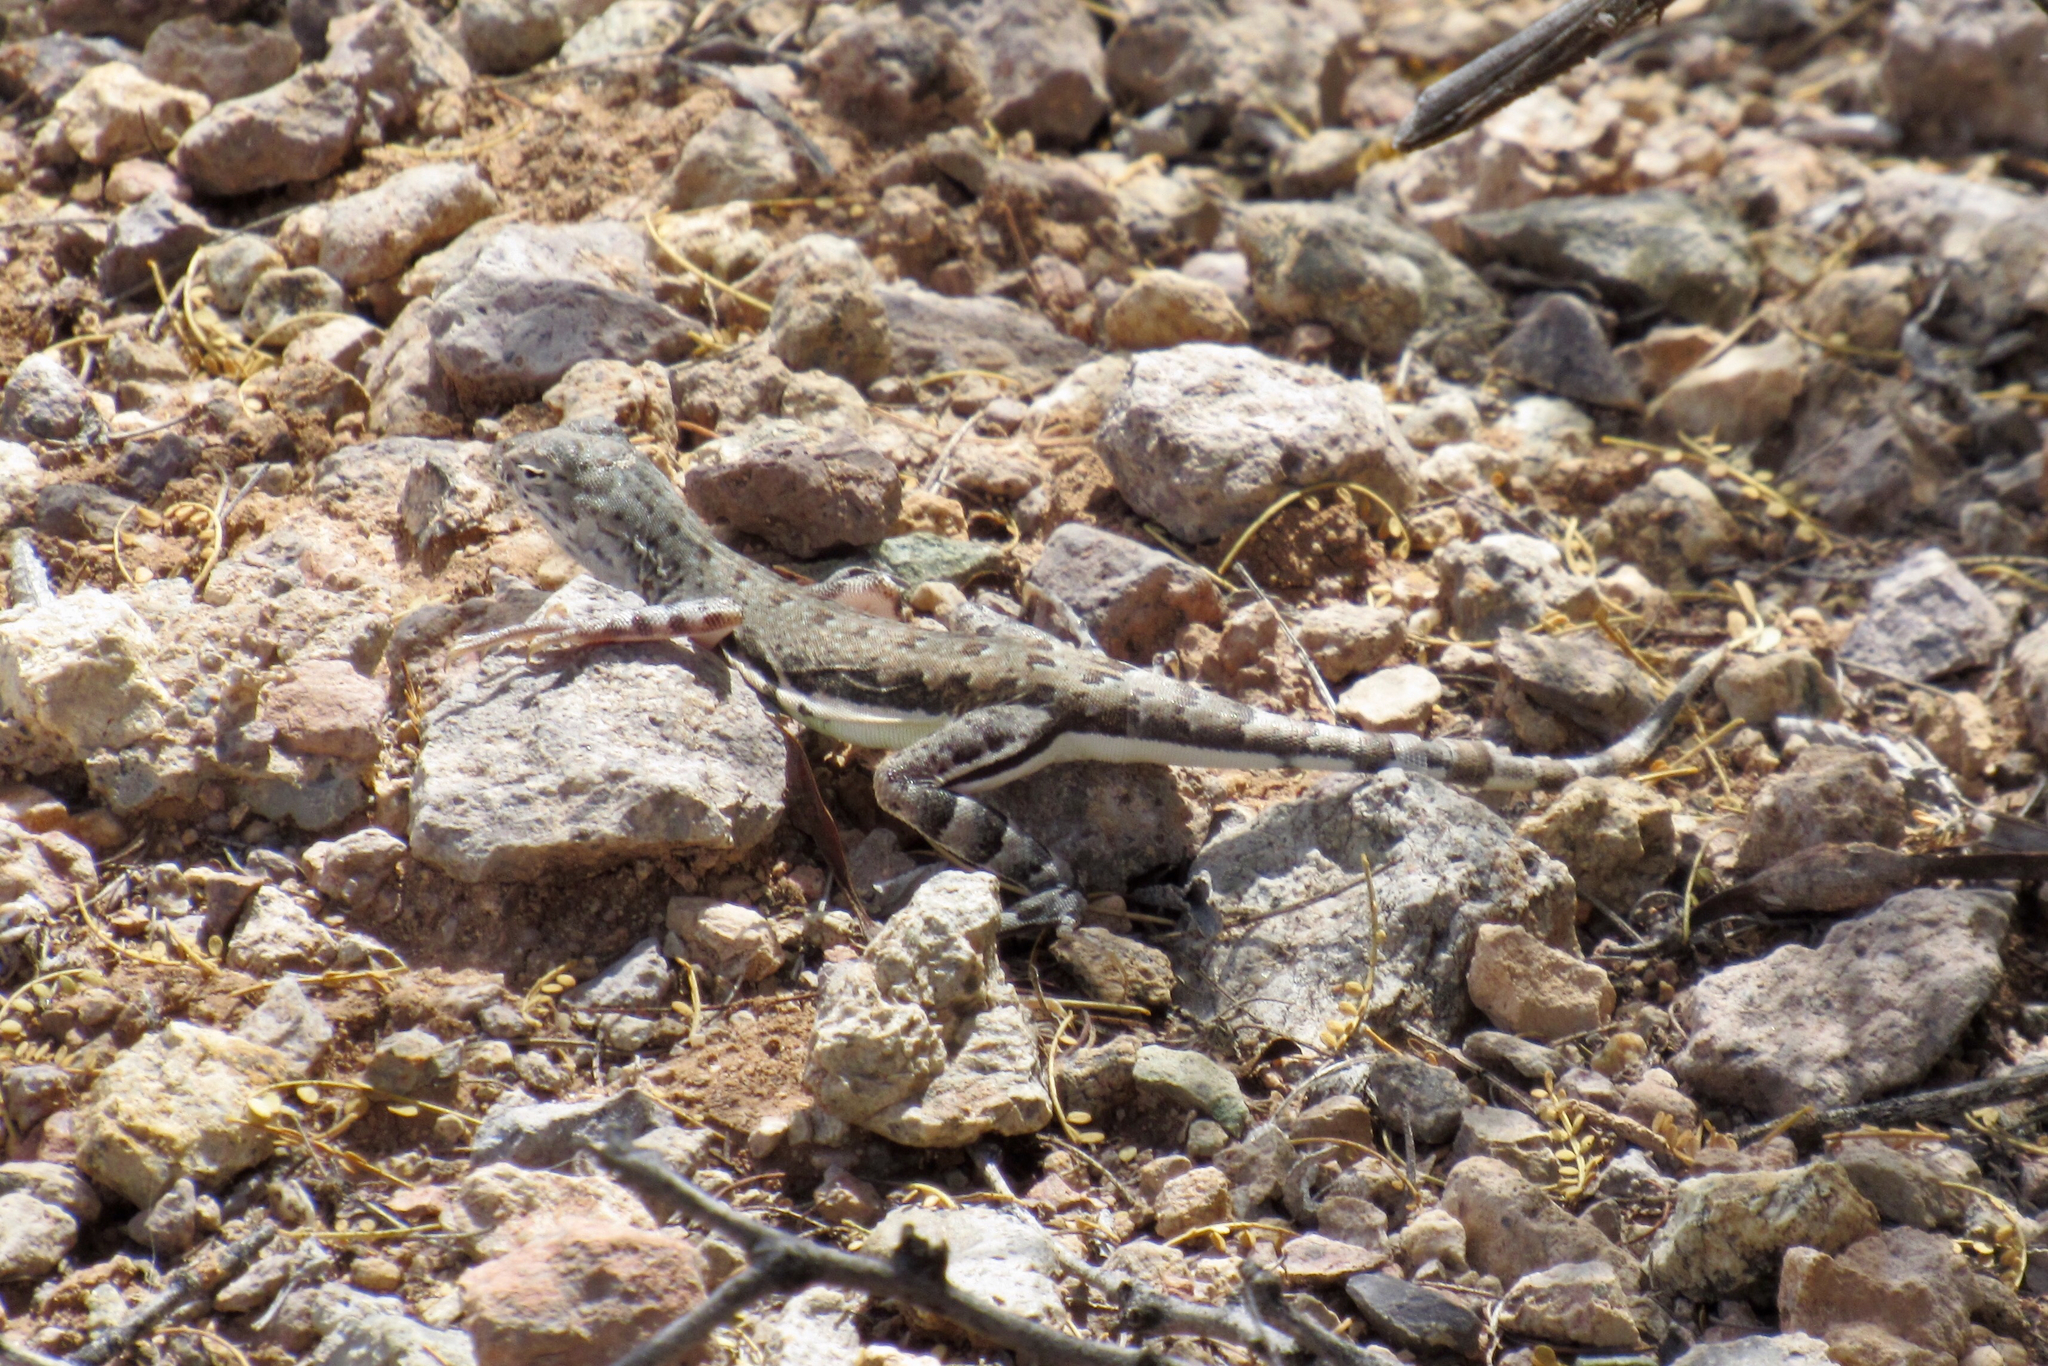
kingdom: Animalia
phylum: Chordata
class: Squamata
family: Phrynosomatidae
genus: Callisaurus
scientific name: Callisaurus draconoides
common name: Zebra-tailed lizard
